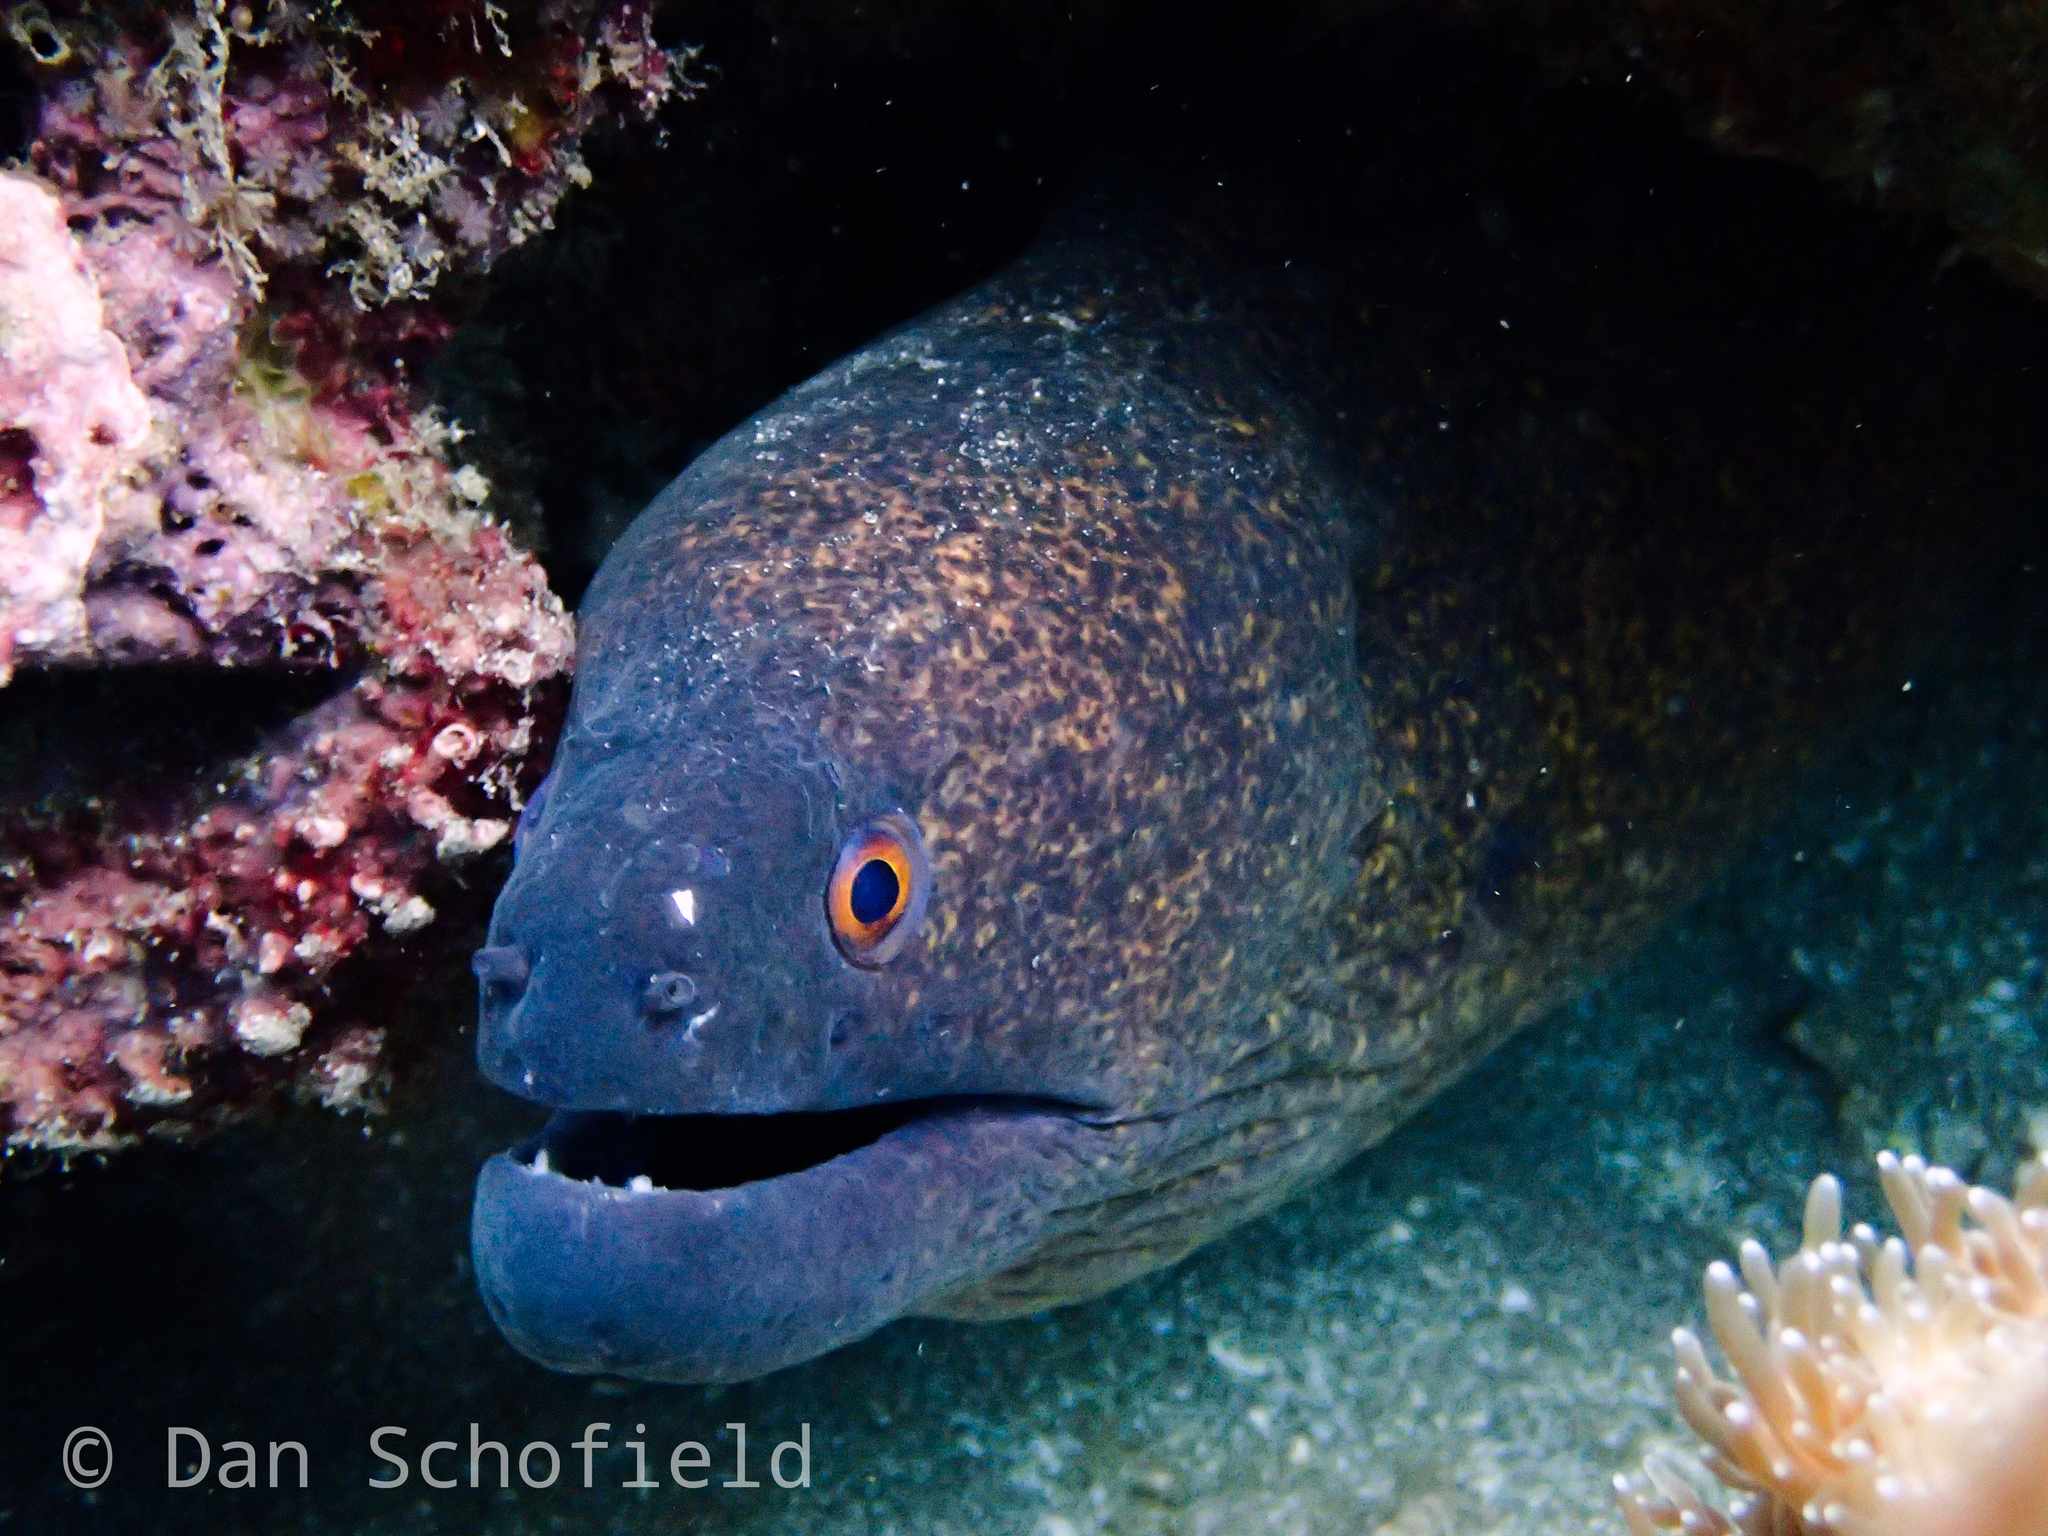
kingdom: Animalia
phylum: Chordata
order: Anguilliformes
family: Muraenidae
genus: Gymnothorax
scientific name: Gymnothorax flavimarginatus
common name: Yellow-edged moray
